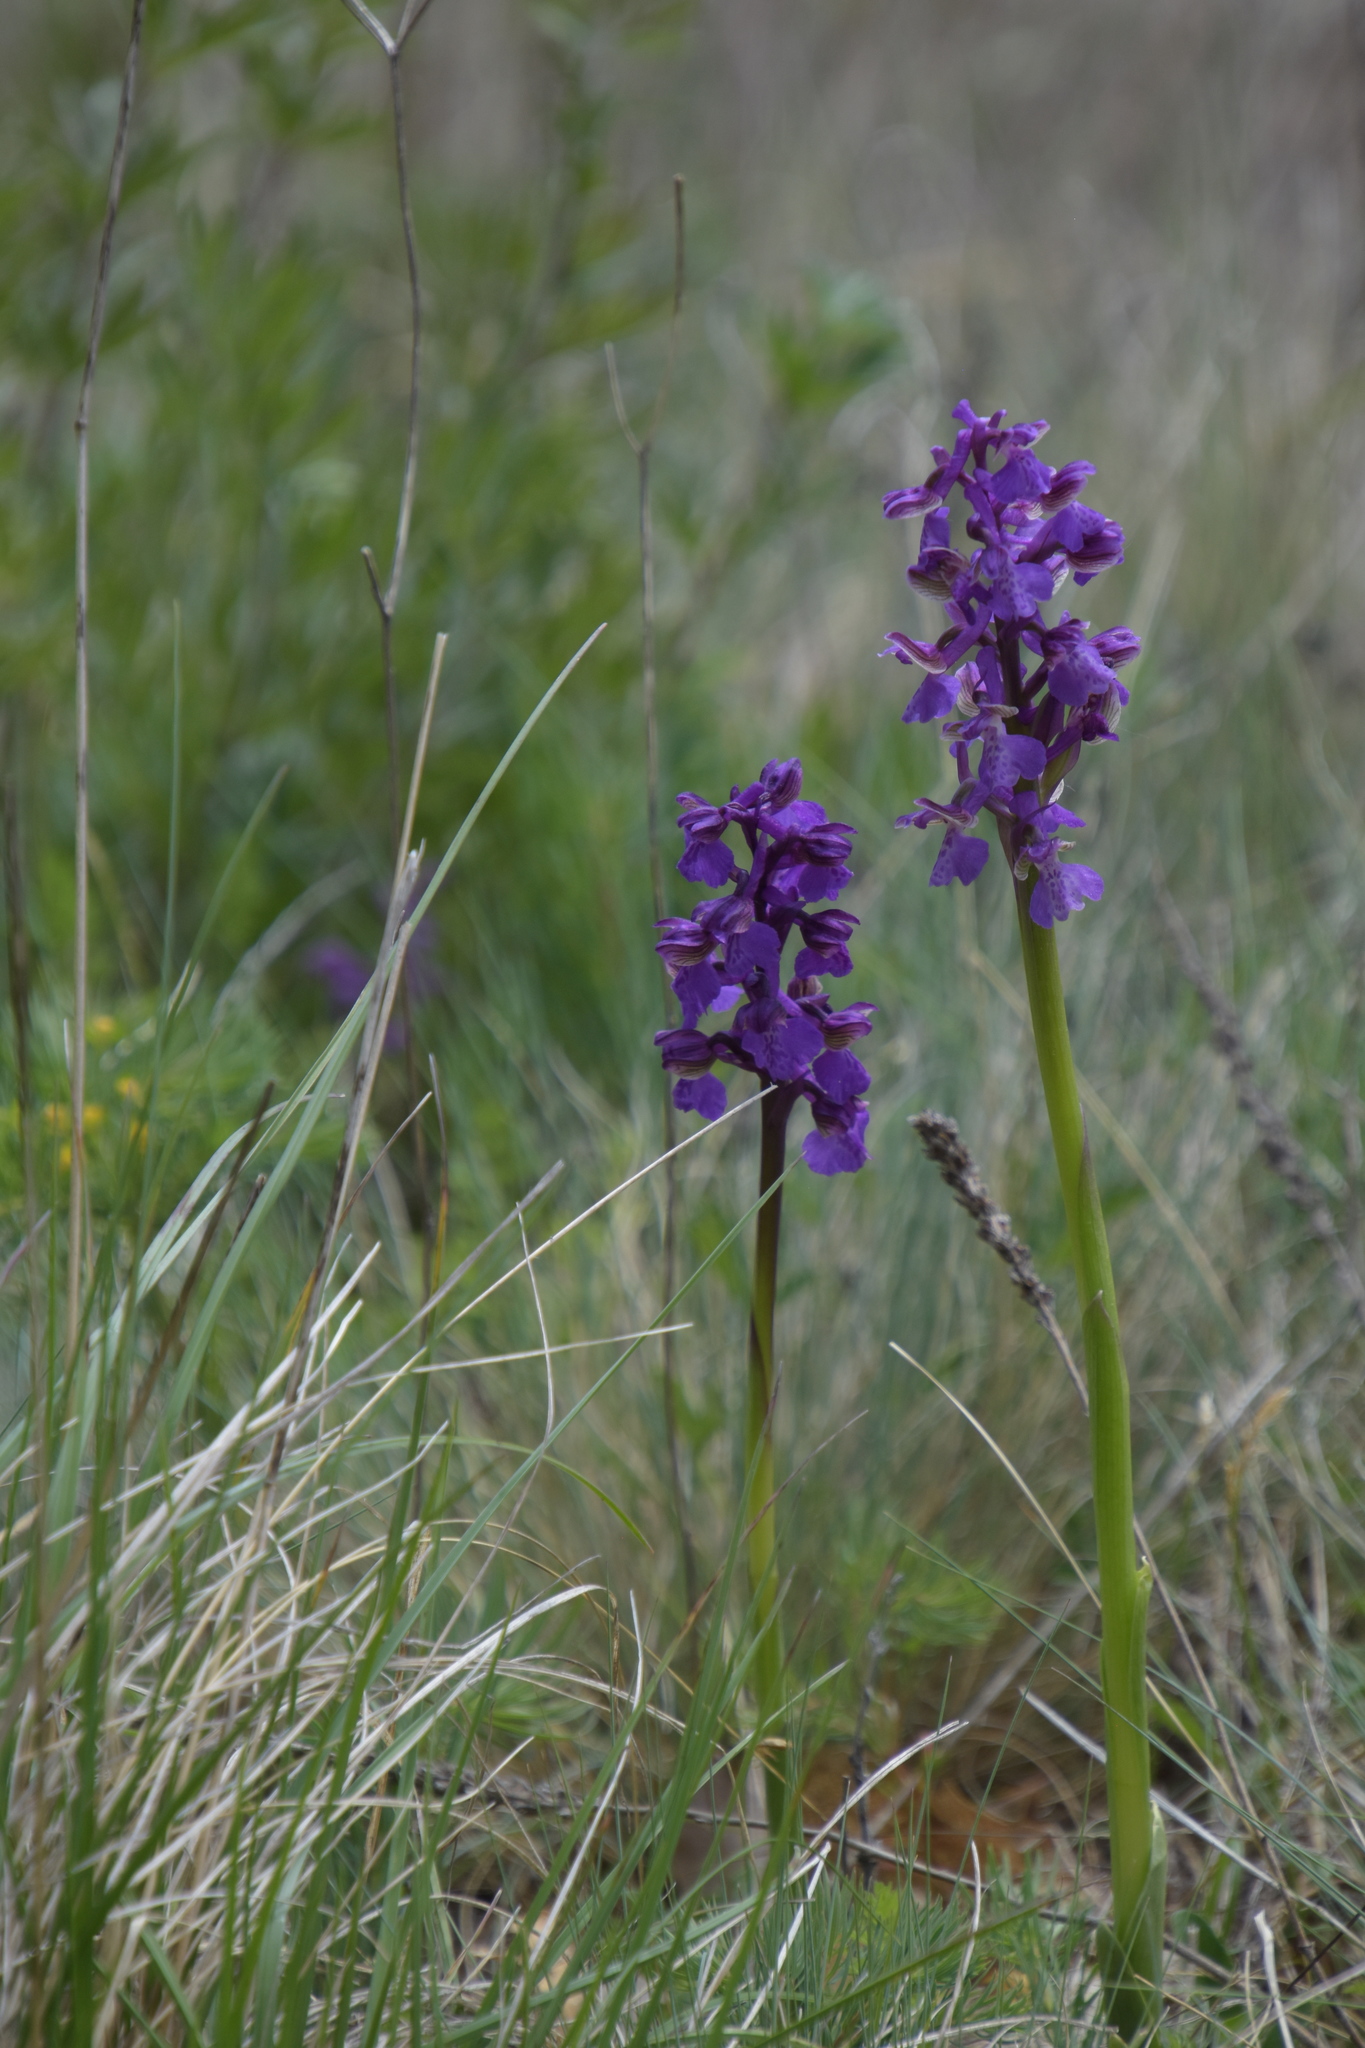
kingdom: Plantae
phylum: Tracheophyta
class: Liliopsida
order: Asparagales
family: Orchidaceae
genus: Anacamptis
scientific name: Anacamptis morio
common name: Green-winged orchid
